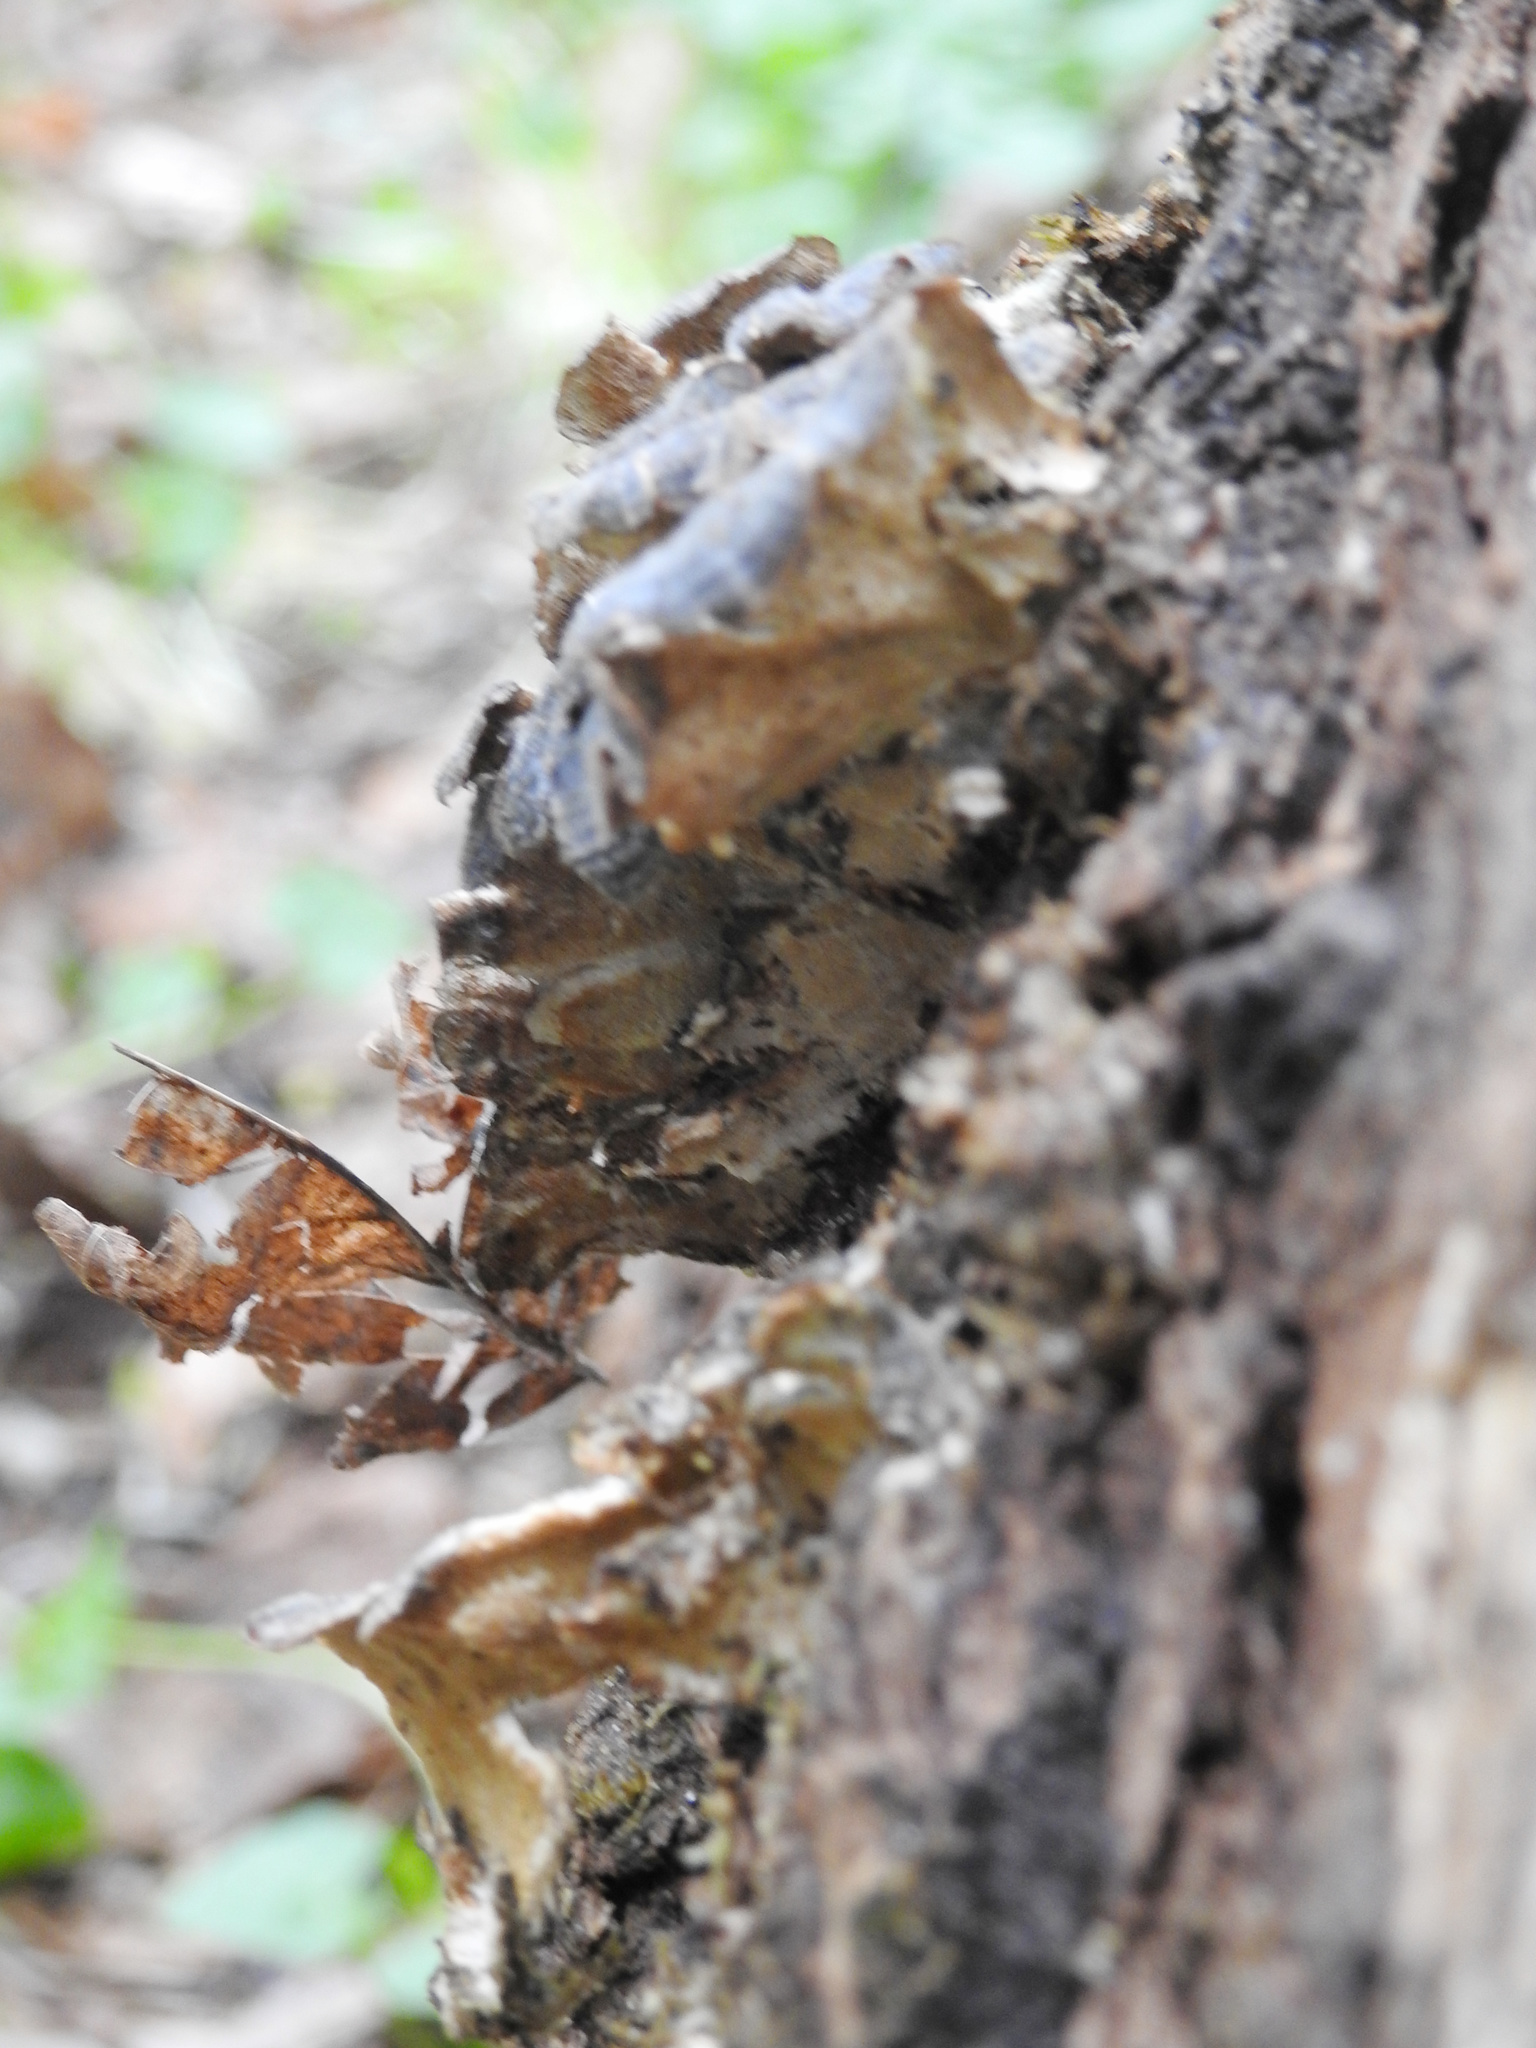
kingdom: Fungi
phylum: Basidiomycota
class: Agaricomycetes
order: Polyporales
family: Polyporaceae
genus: Trametes
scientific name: Trametes versicolor
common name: Turkeytail
